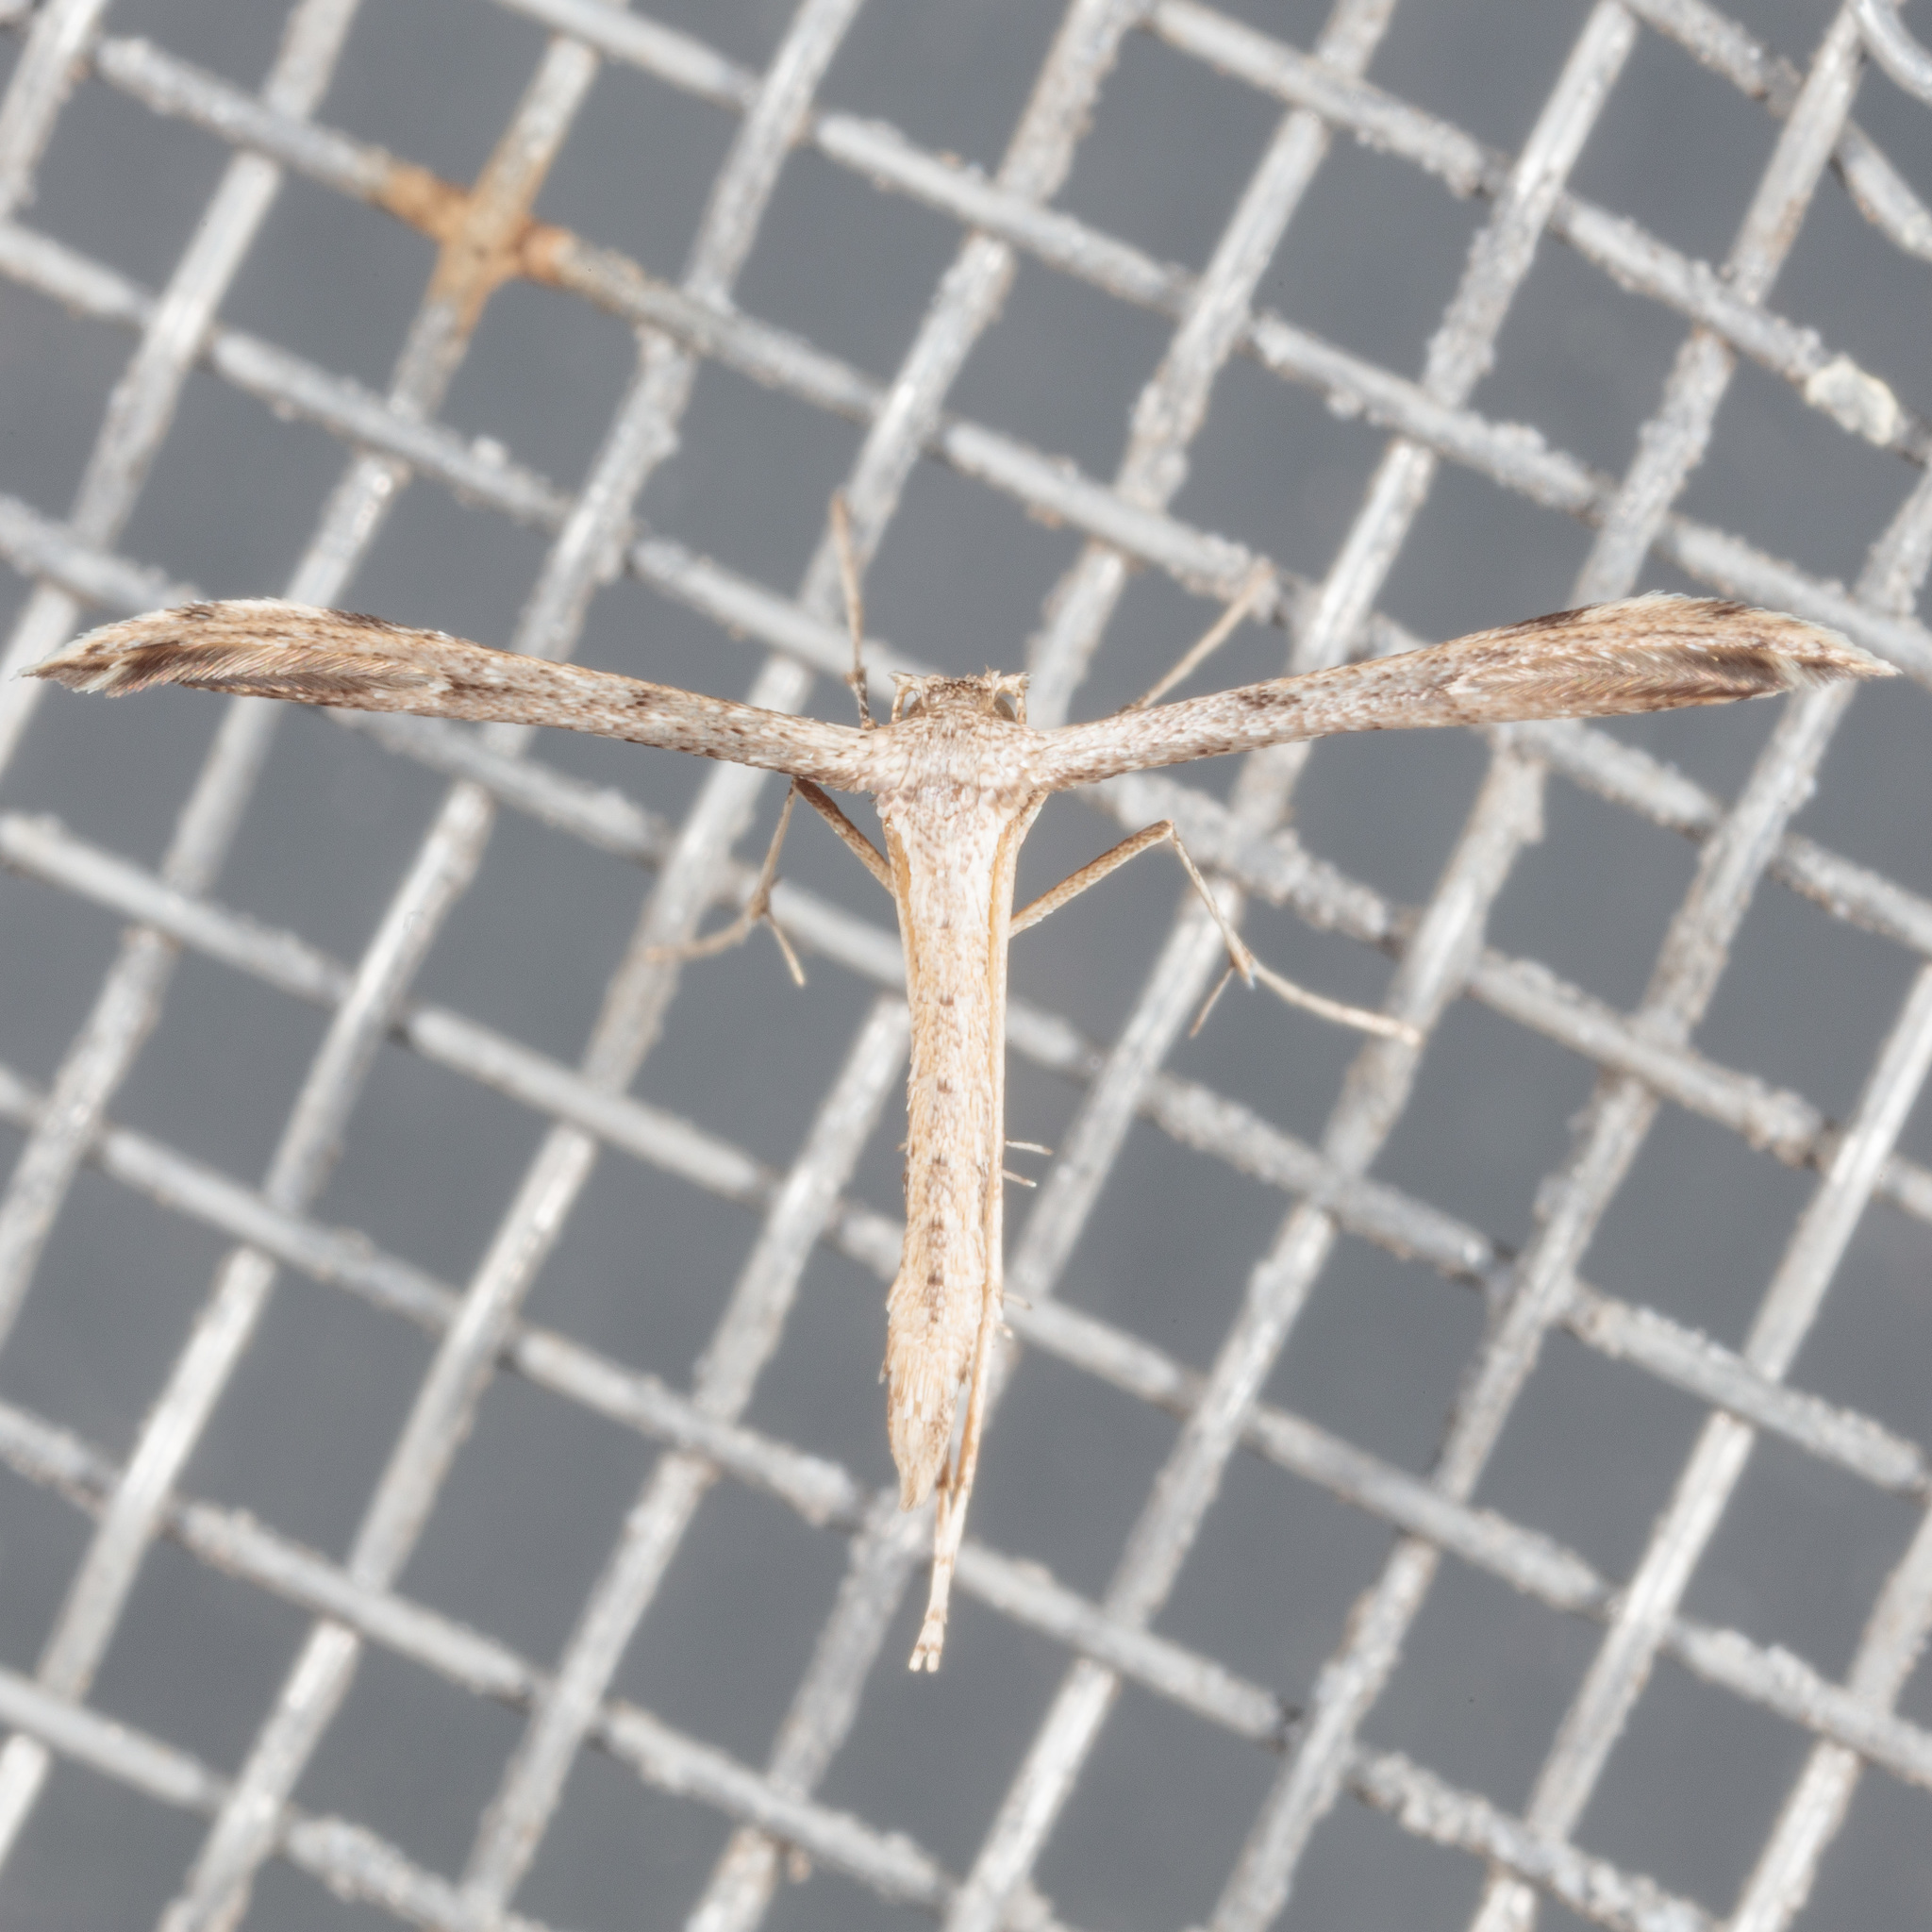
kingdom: Animalia
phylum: Arthropoda
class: Insecta
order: Lepidoptera
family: Pterophoridae
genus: Adaina
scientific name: Adaina ambrosiae
